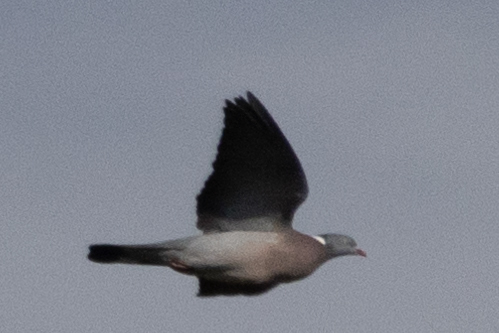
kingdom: Animalia
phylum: Chordata
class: Aves
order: Columbiformes
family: Columbidae
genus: Columba
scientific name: Columba palumbus
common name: Common wood pigeon
